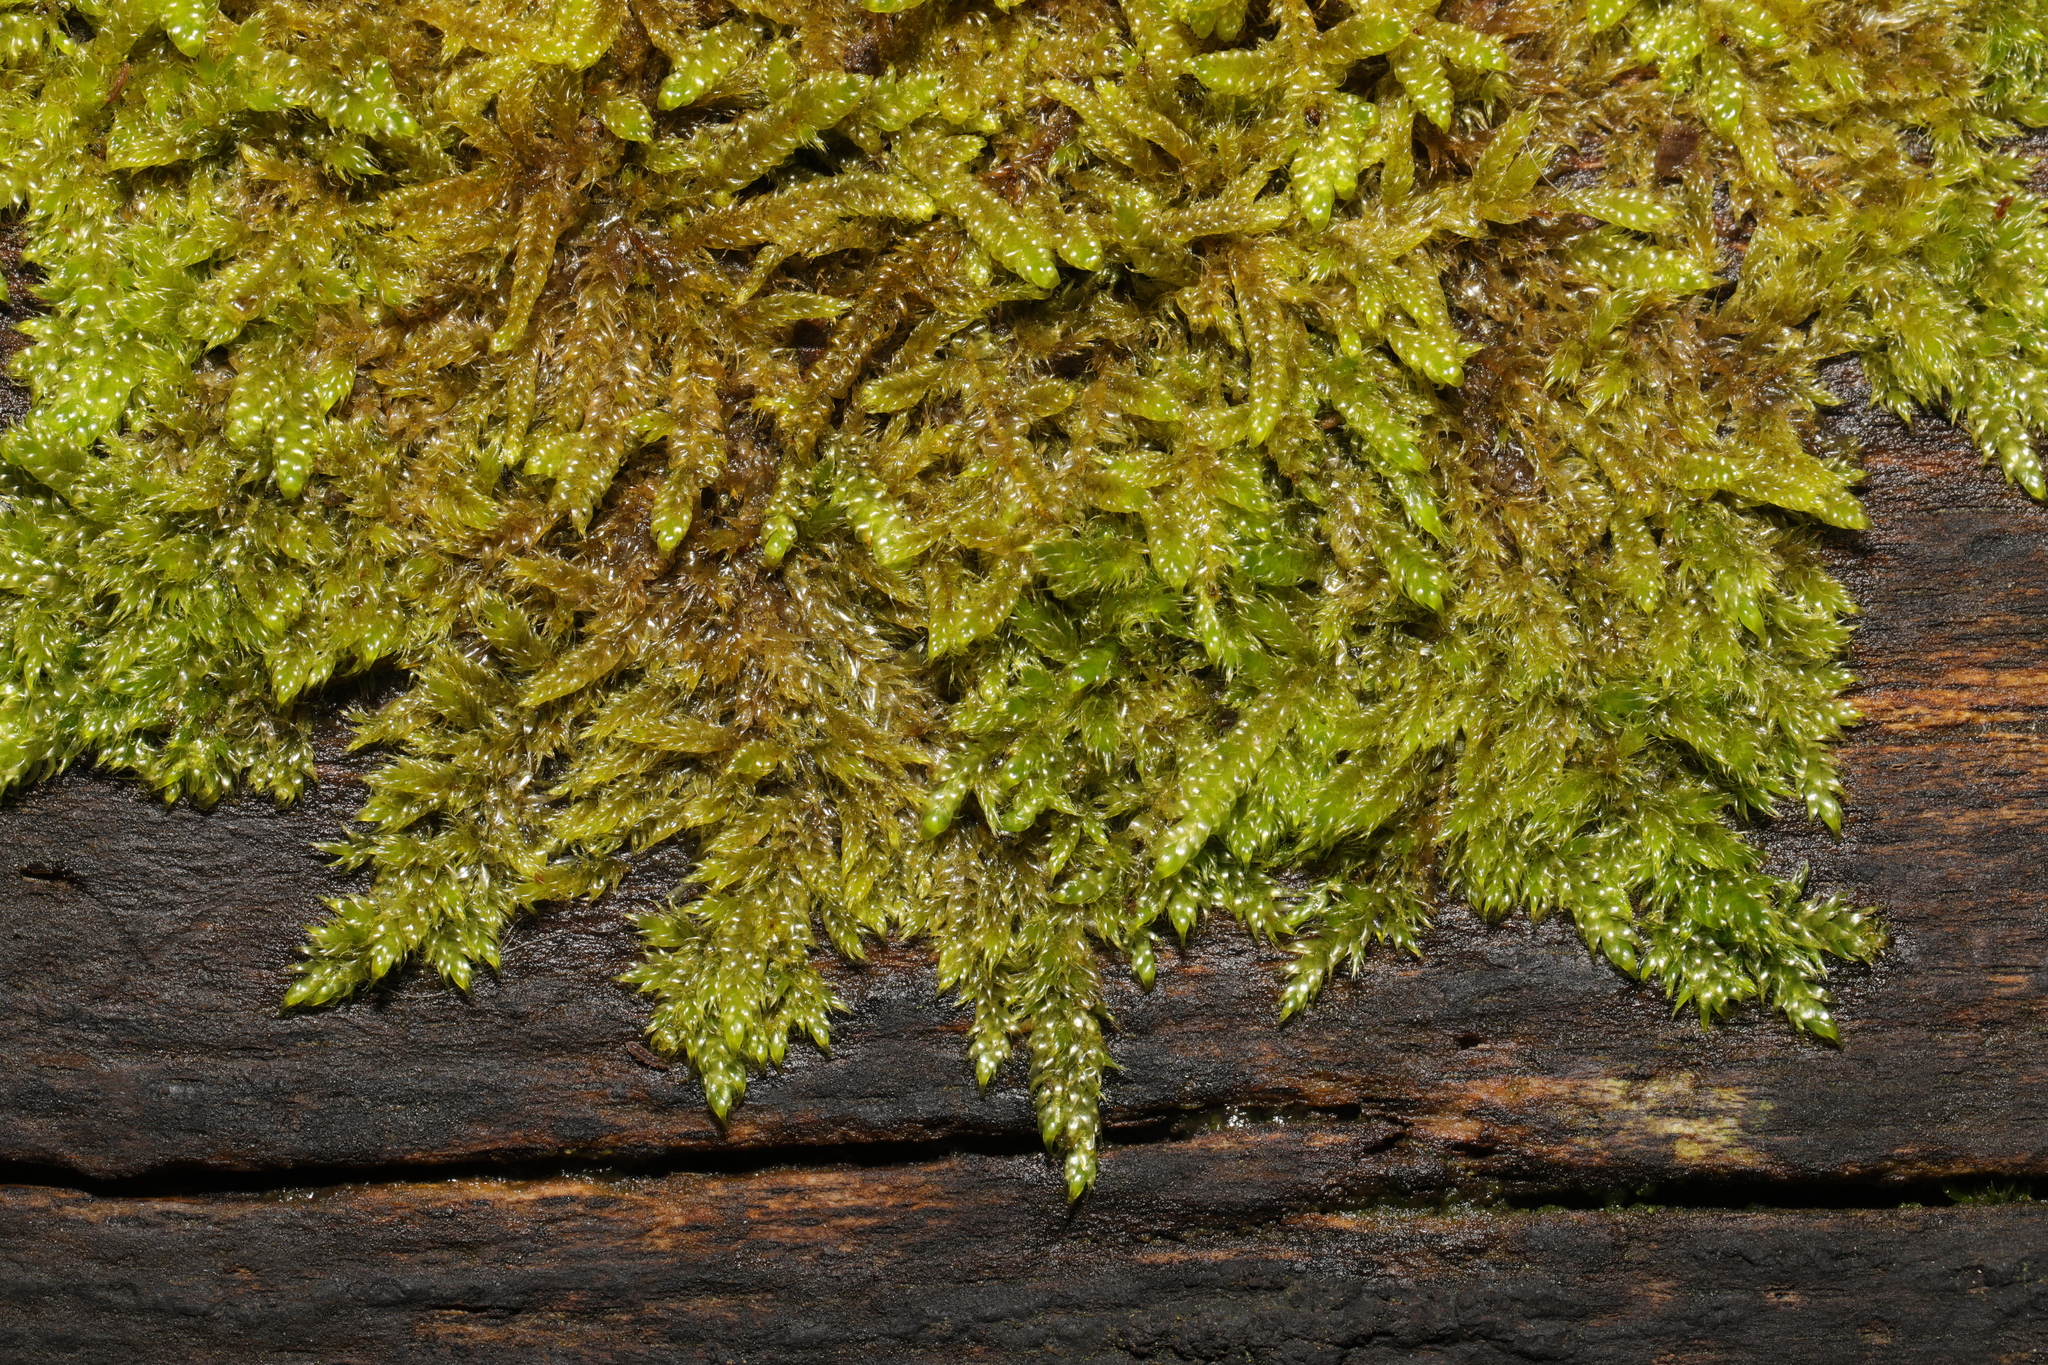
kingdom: Plantae
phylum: Bryophyta
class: Bryopsida
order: Hypnales
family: Hypnaceae
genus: Hypnum
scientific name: Hypnum cupressiforme
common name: Cypress-leaved plait-moss
